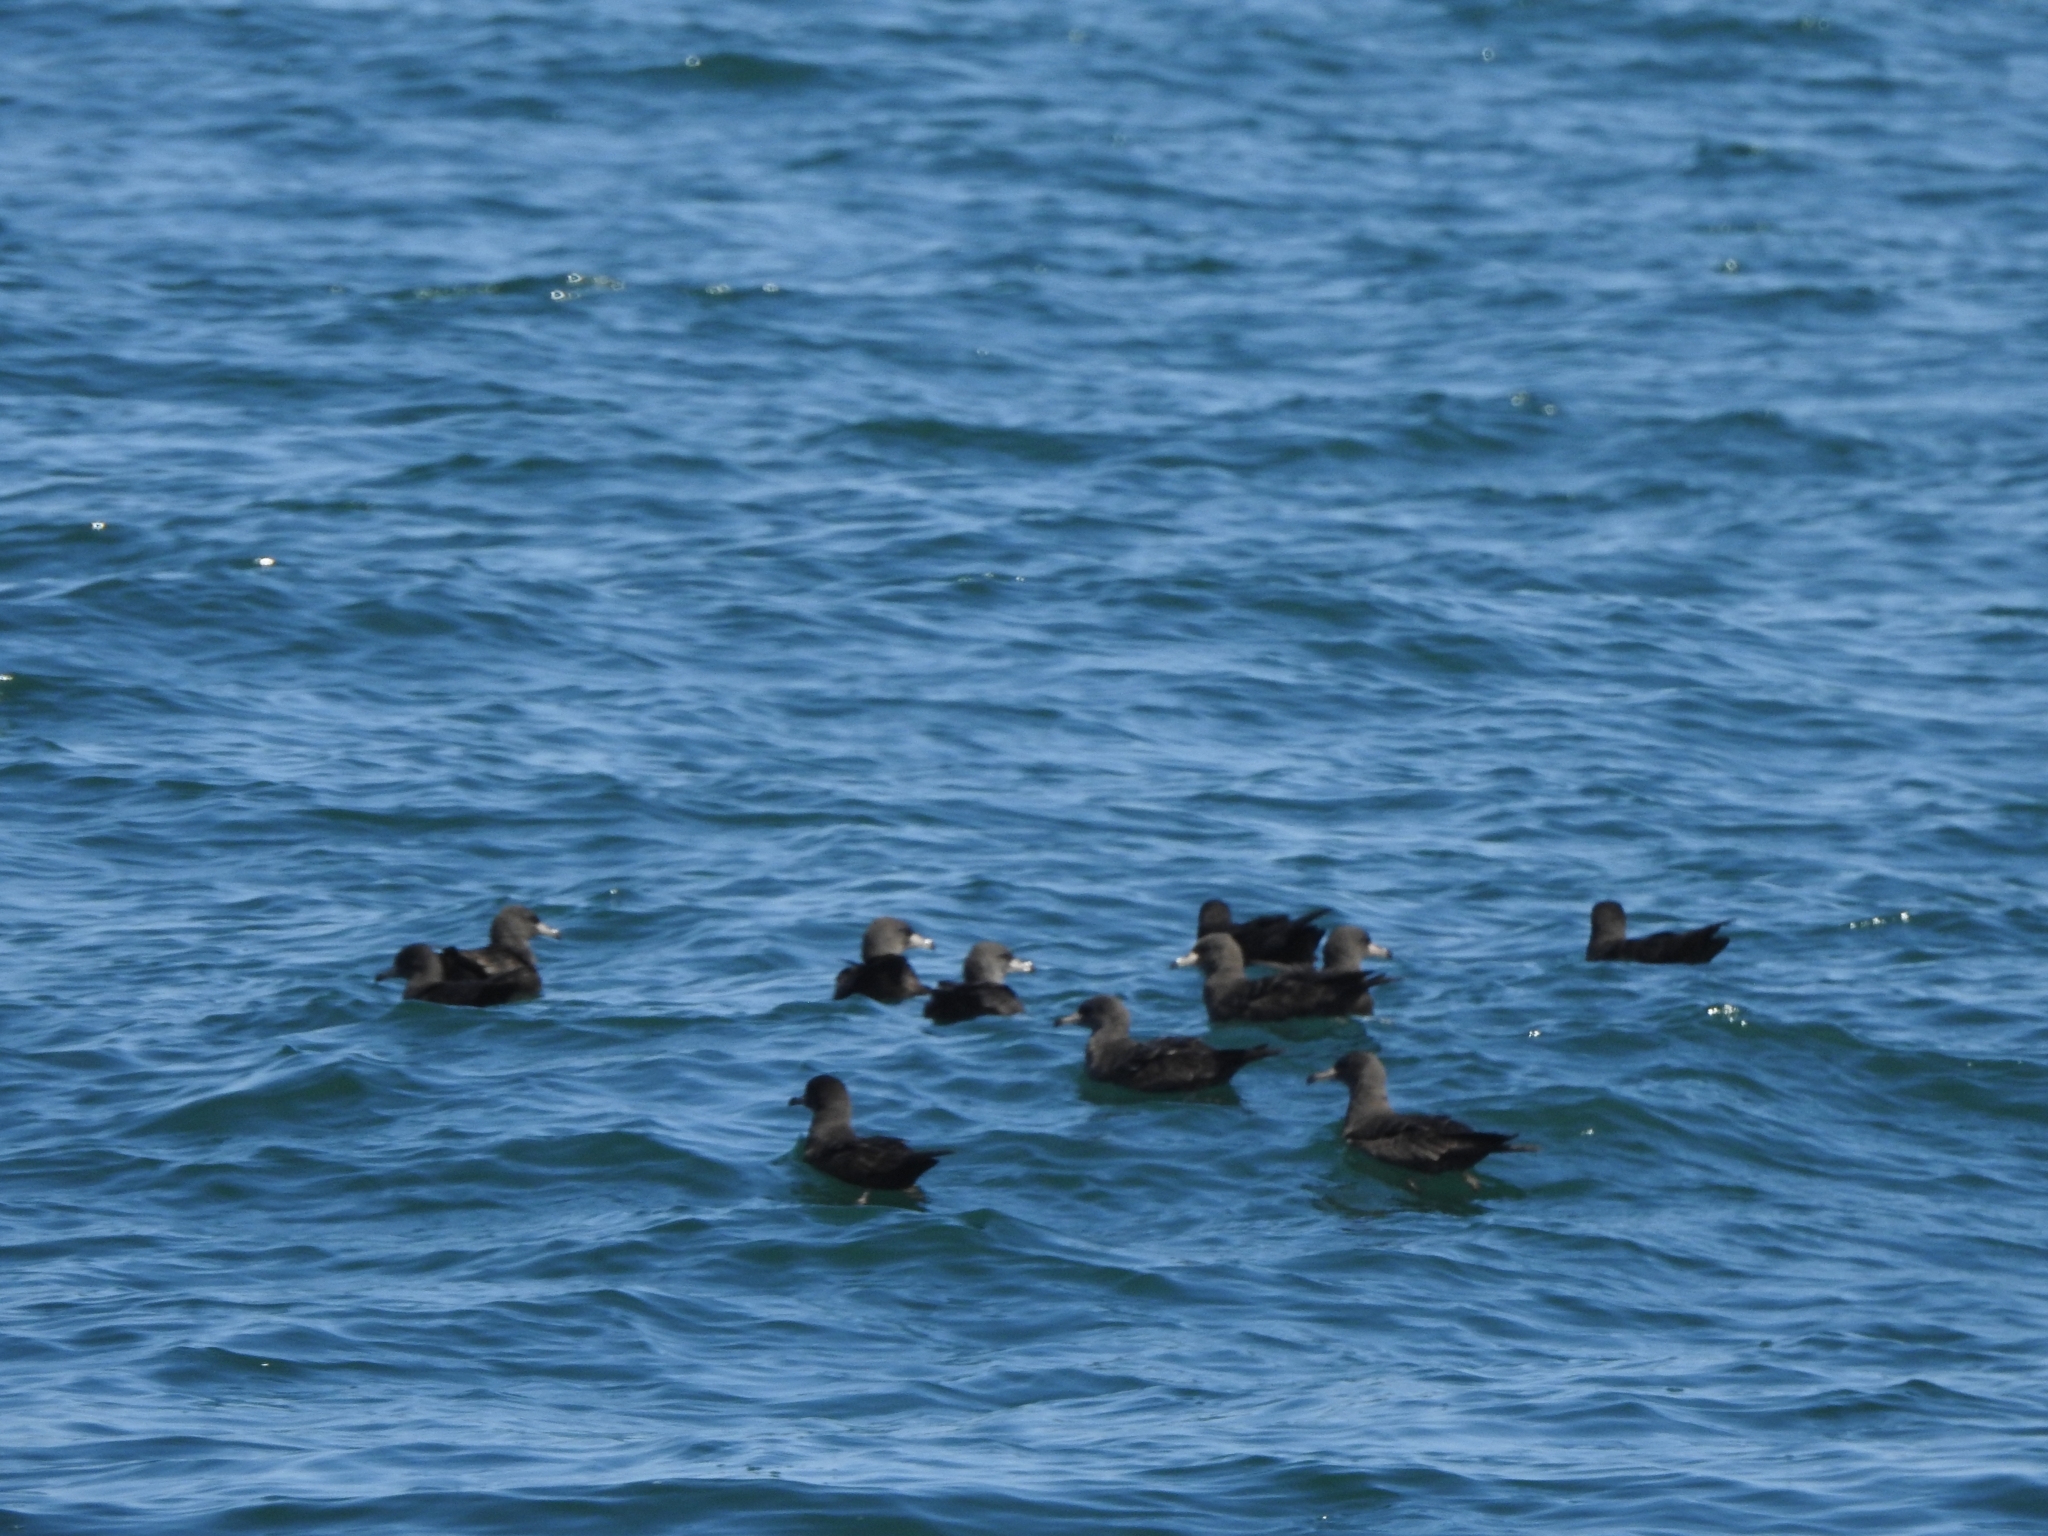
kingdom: Animalia
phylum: Chordata
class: Aves
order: Procellariiformes
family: Procellariidae
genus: Puffinus
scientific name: Puffinus carneipes
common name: Flesh-footed shearwater
